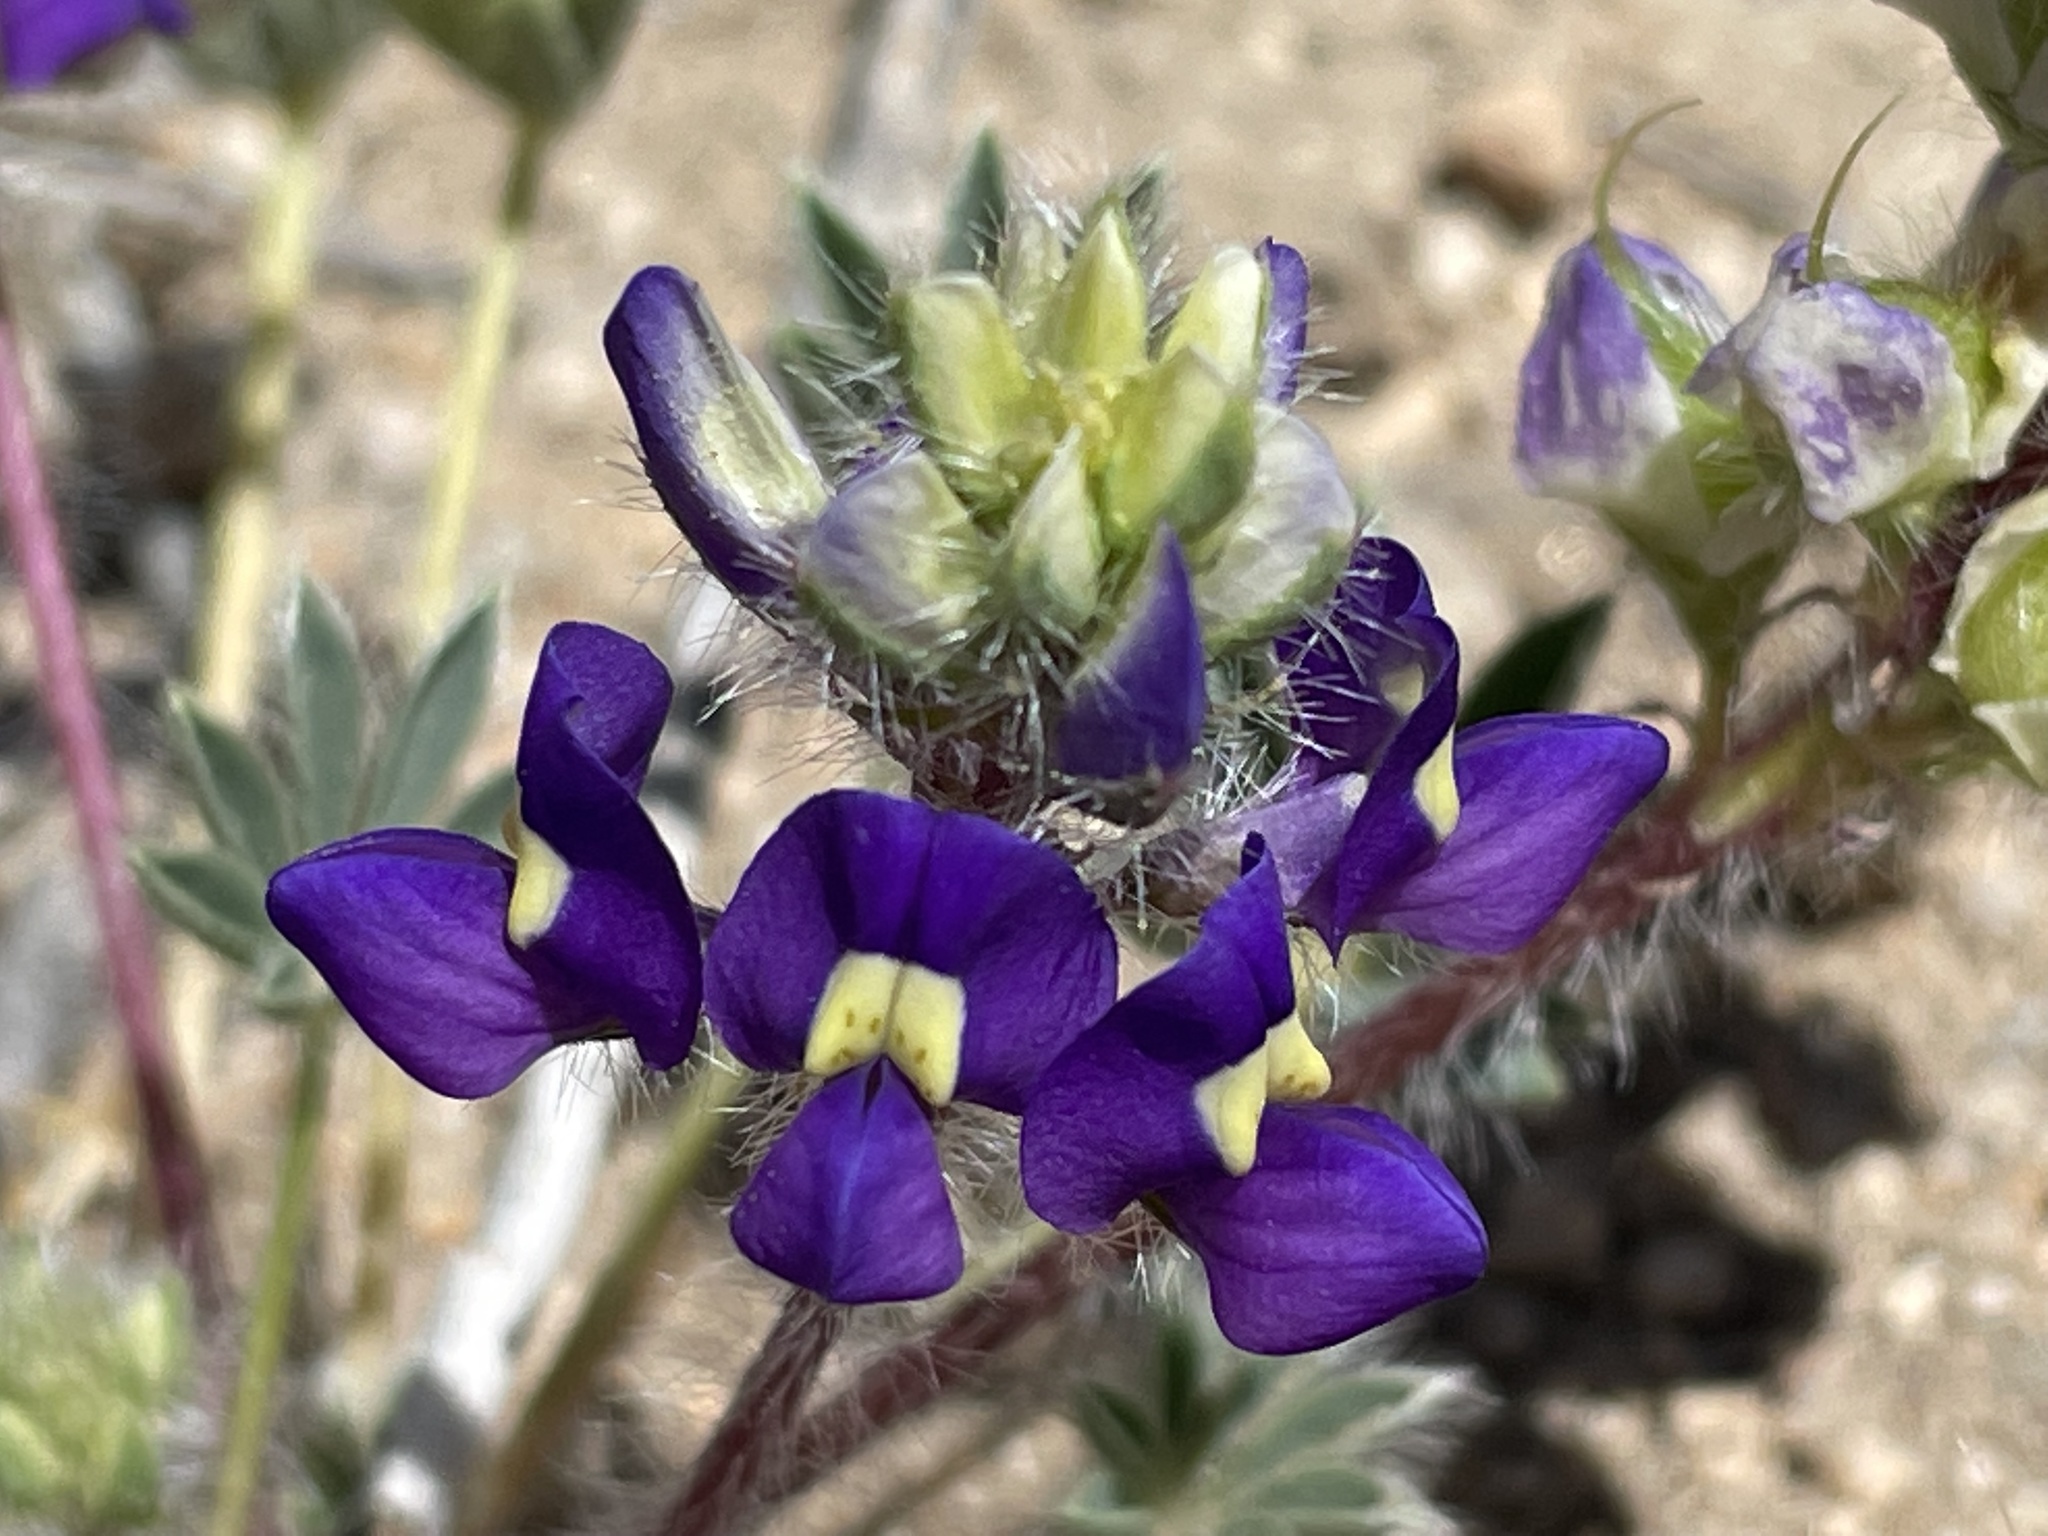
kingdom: Plantae
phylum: Tracheophyta
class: Magnoliopsida
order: Fabales
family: Fabaceae
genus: Lupinus
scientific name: Lupinus flavoculatus
